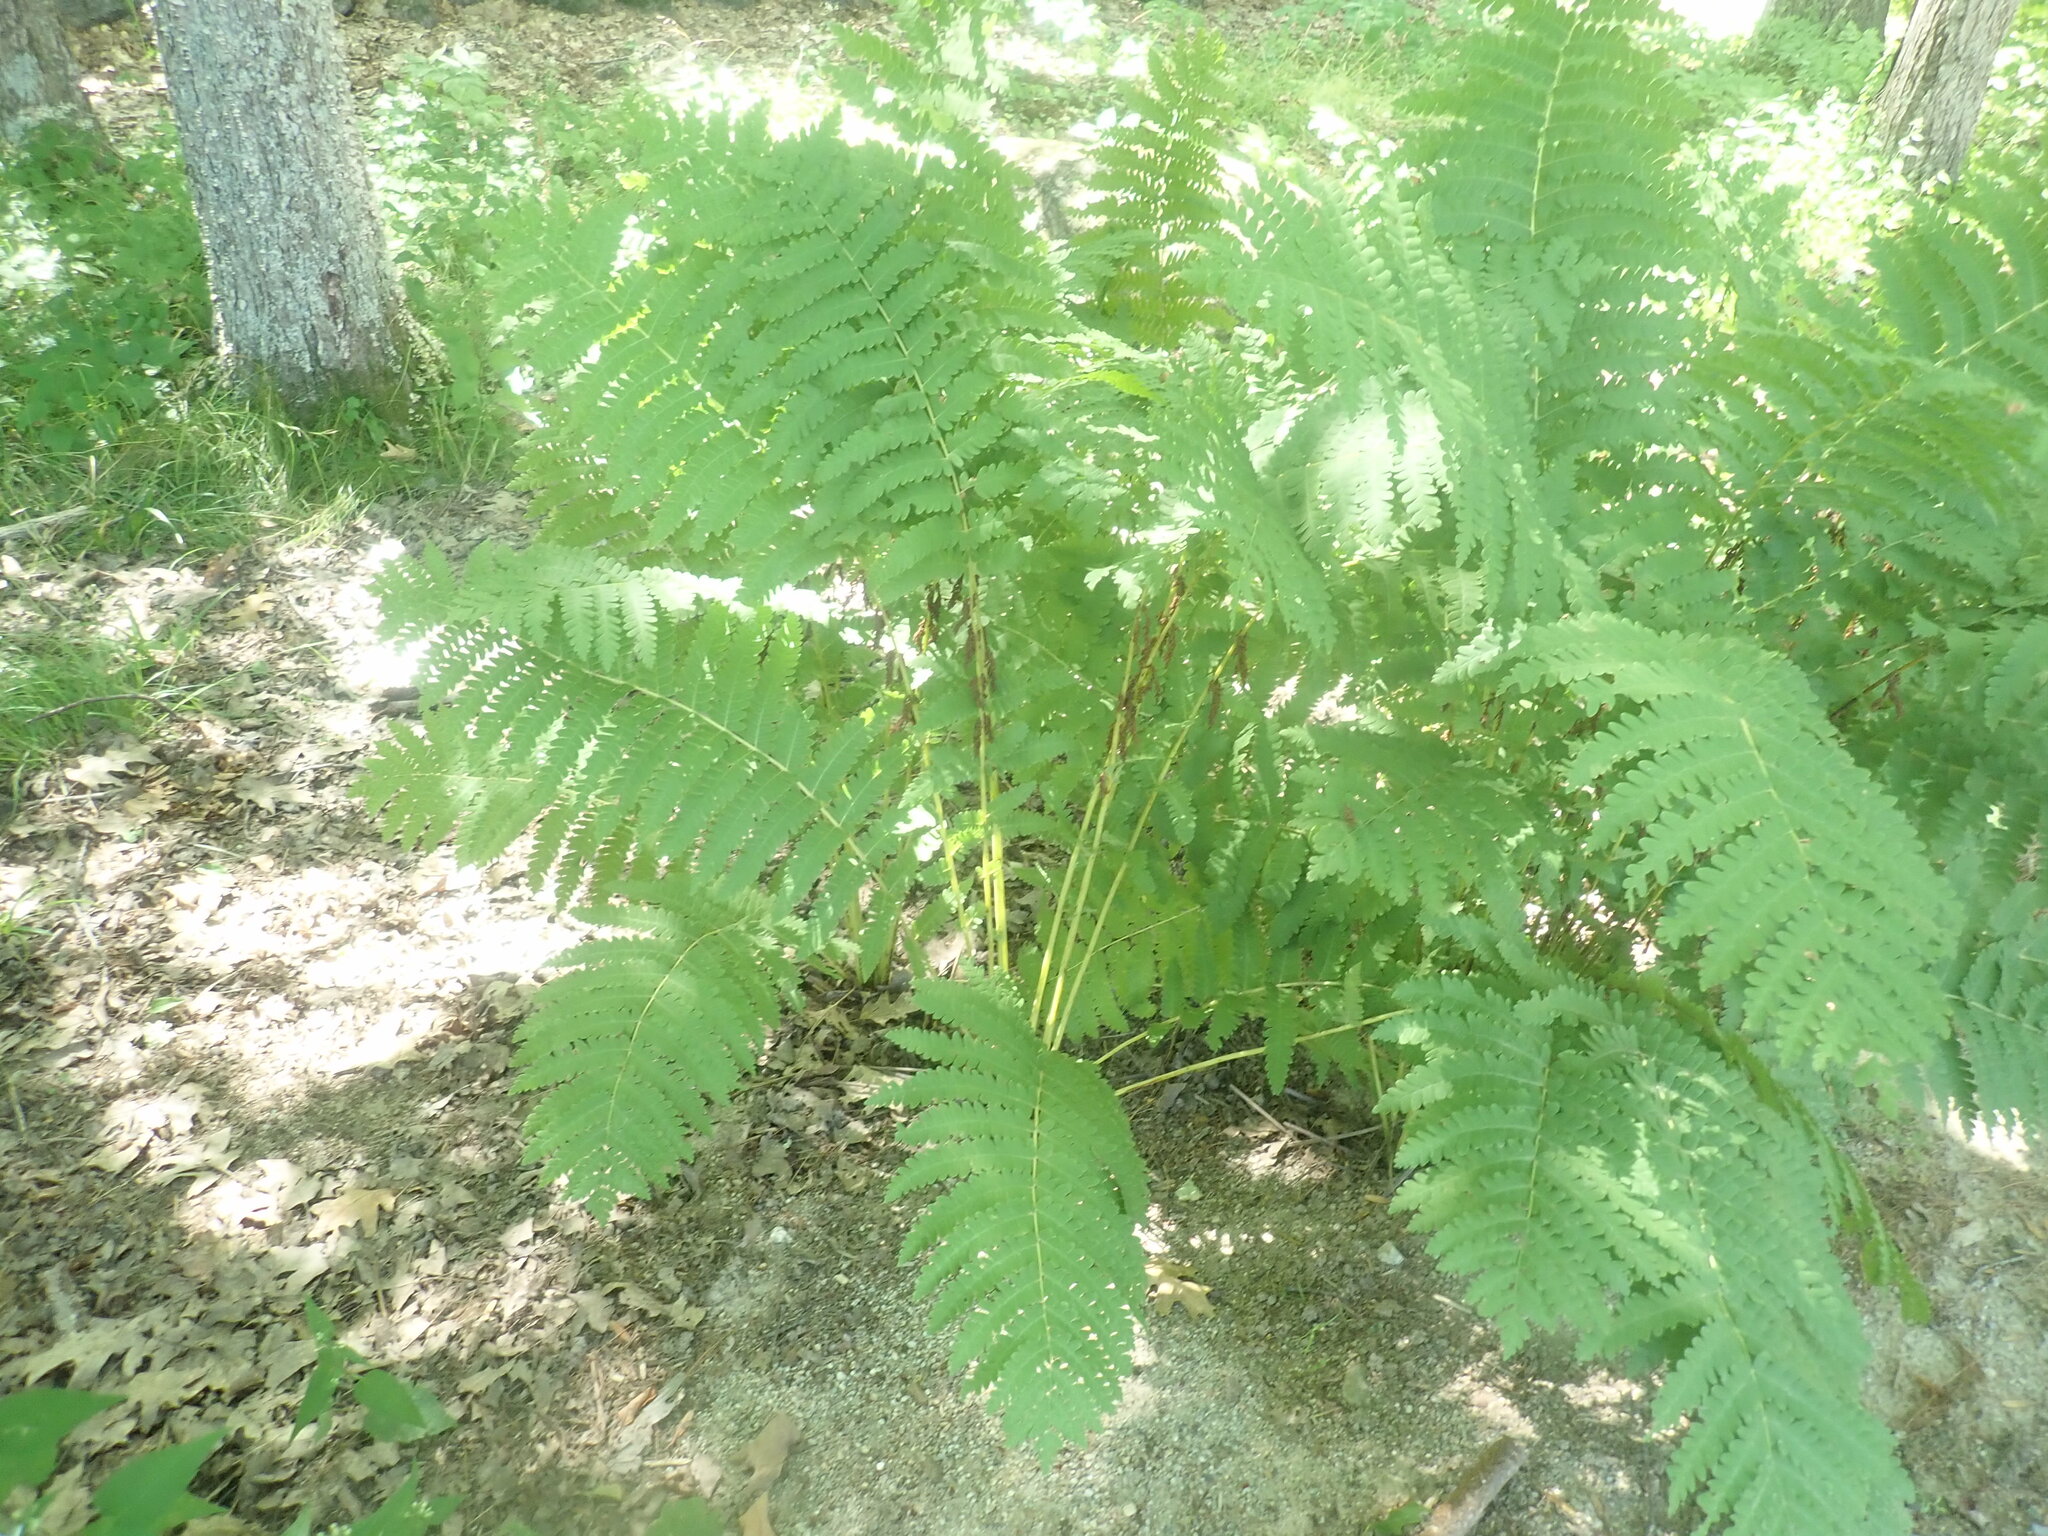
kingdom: Plantae
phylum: Tracheophyta
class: Polypodiopsida
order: Osmundales
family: Osmundaceae
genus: Claytosmunda
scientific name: Claytosmunda claytoniana
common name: Clayton's fern
